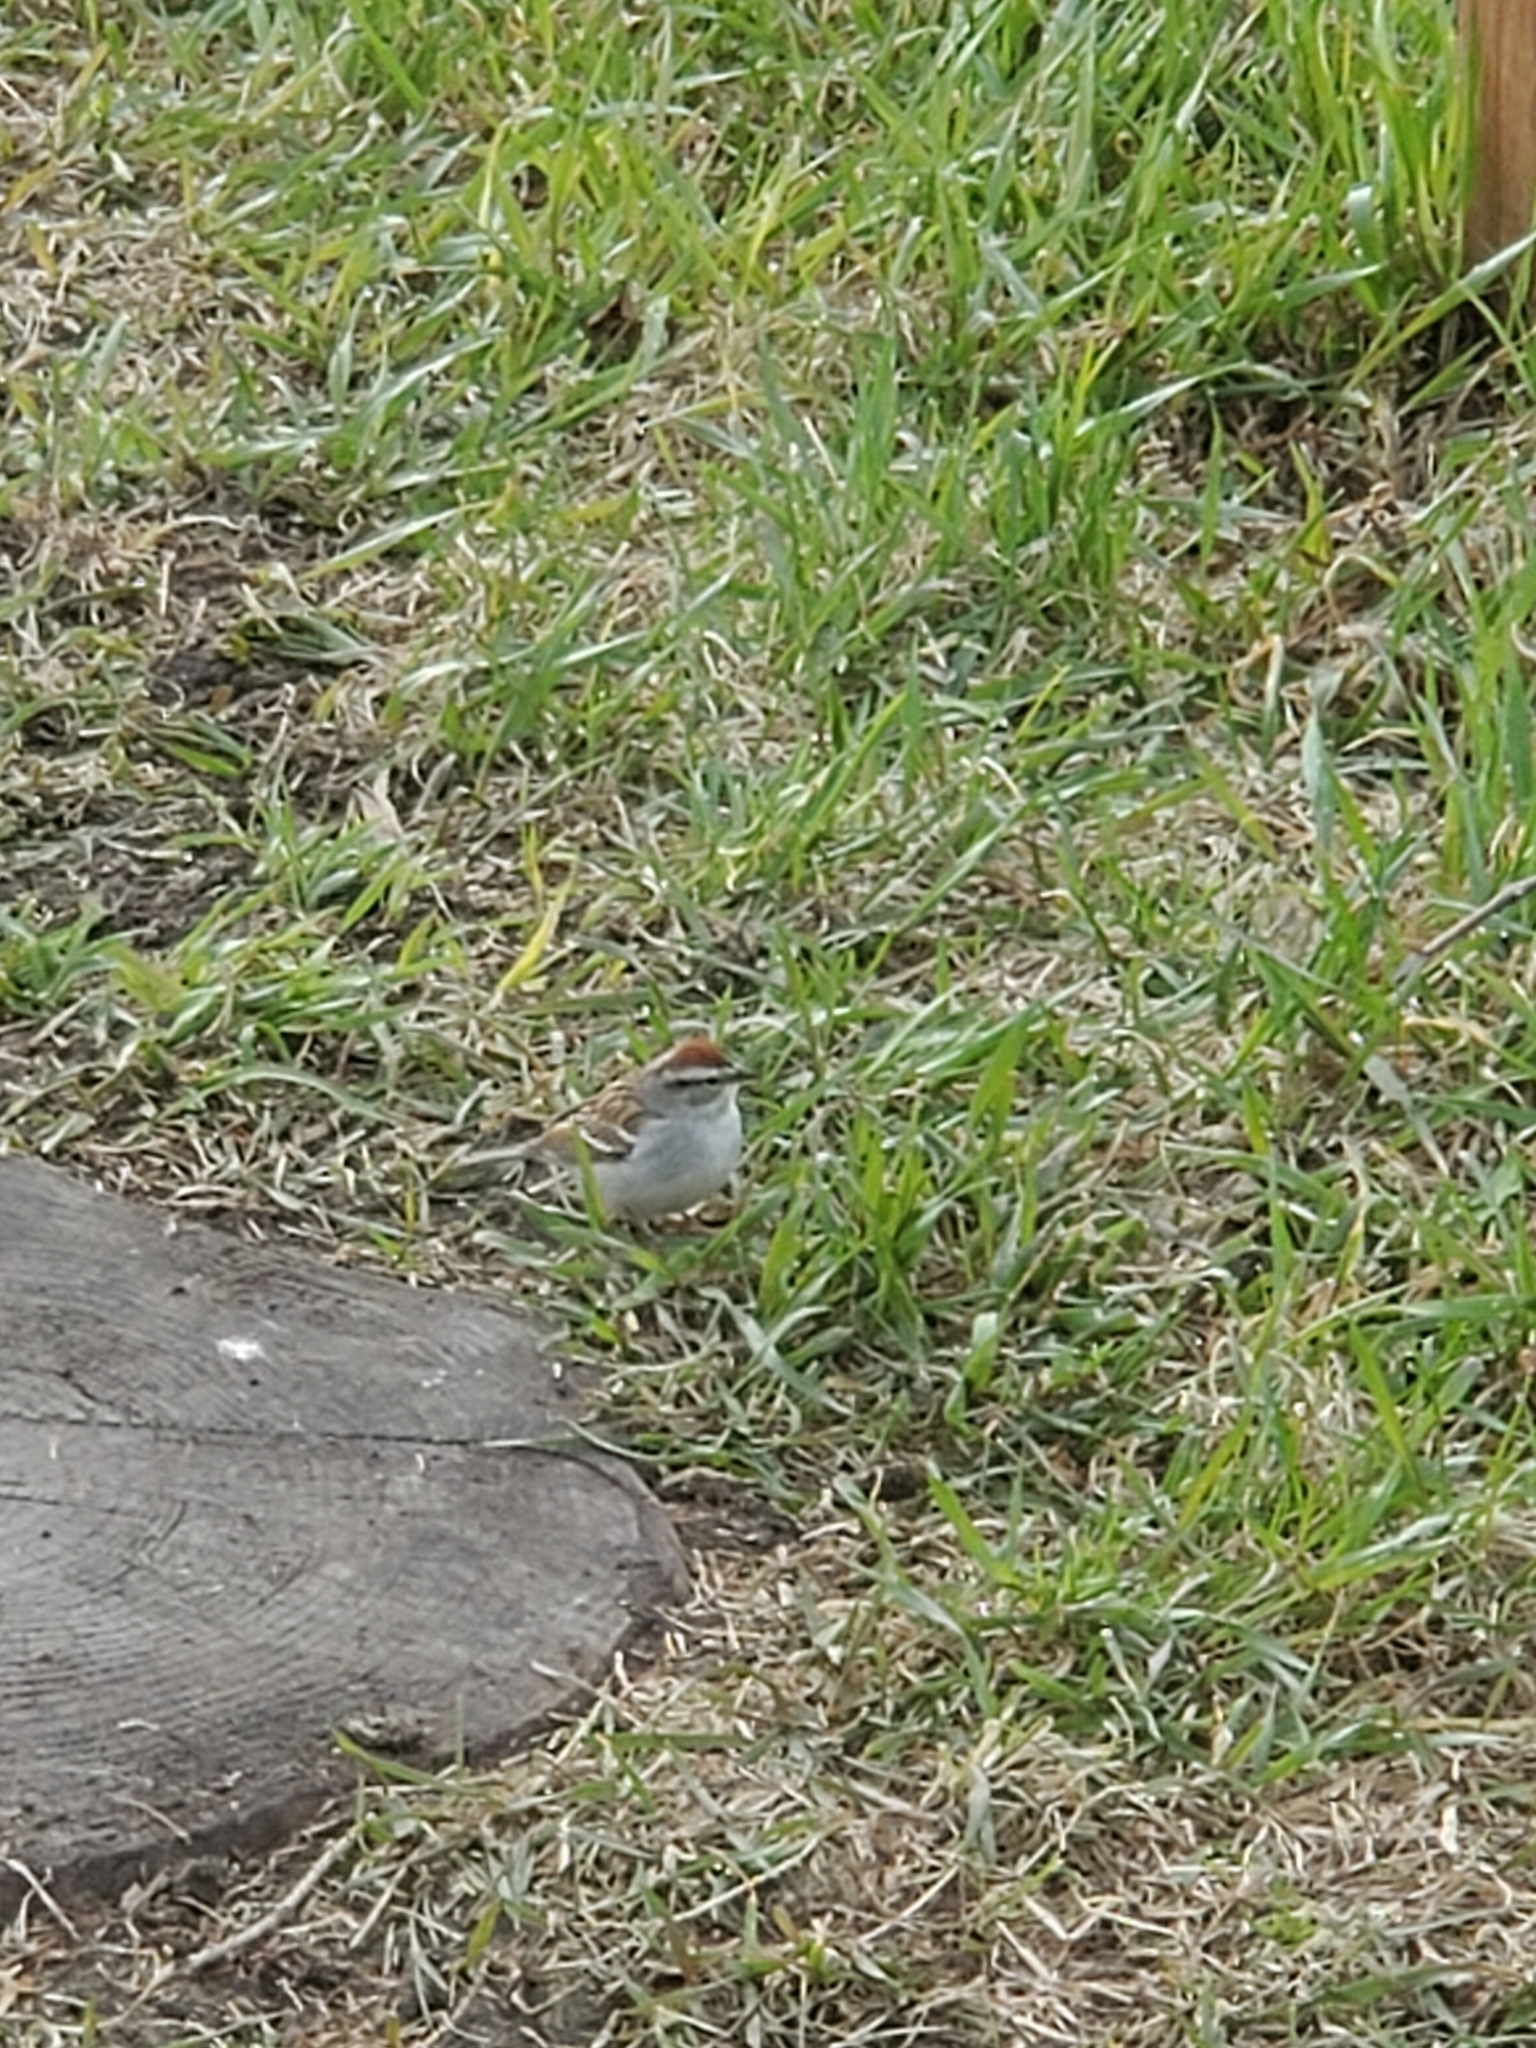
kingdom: Animalia
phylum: Chordata
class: Aves
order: Passeriformes
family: Passerellidae
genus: Spizella
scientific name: Spizella passerina
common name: Chipping sparrow
